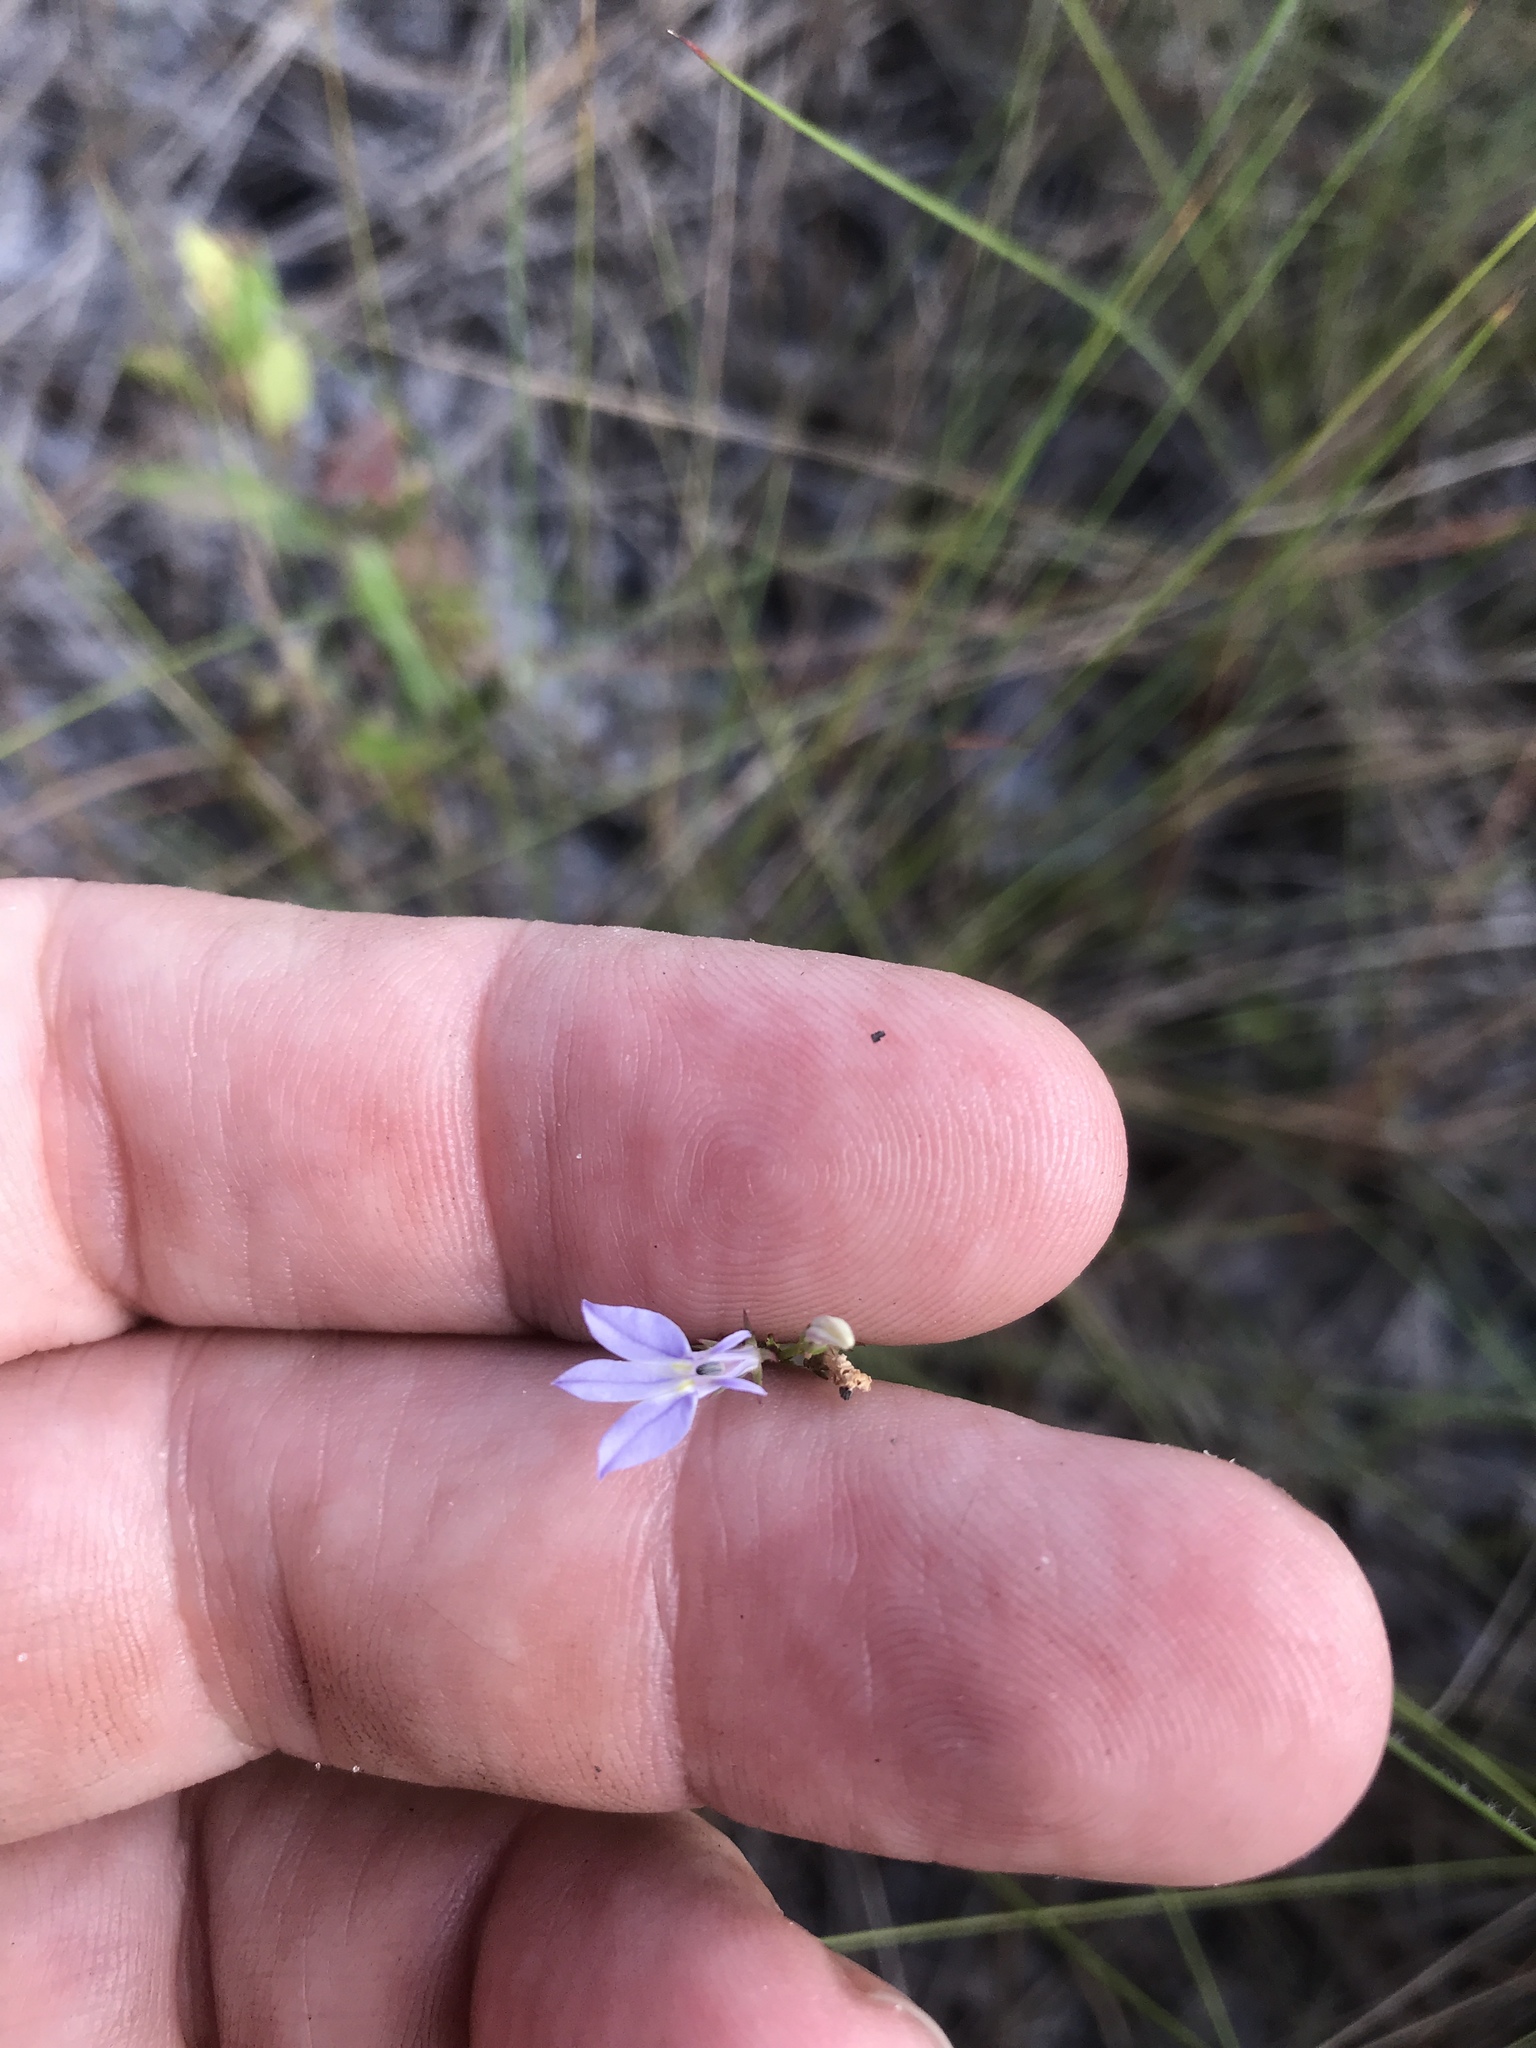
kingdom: Plantae
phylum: Tracheophyta
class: Magnoliopsida
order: Asterales
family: Campanulaceae
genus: Lobelia
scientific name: Lobelia nuttallii
